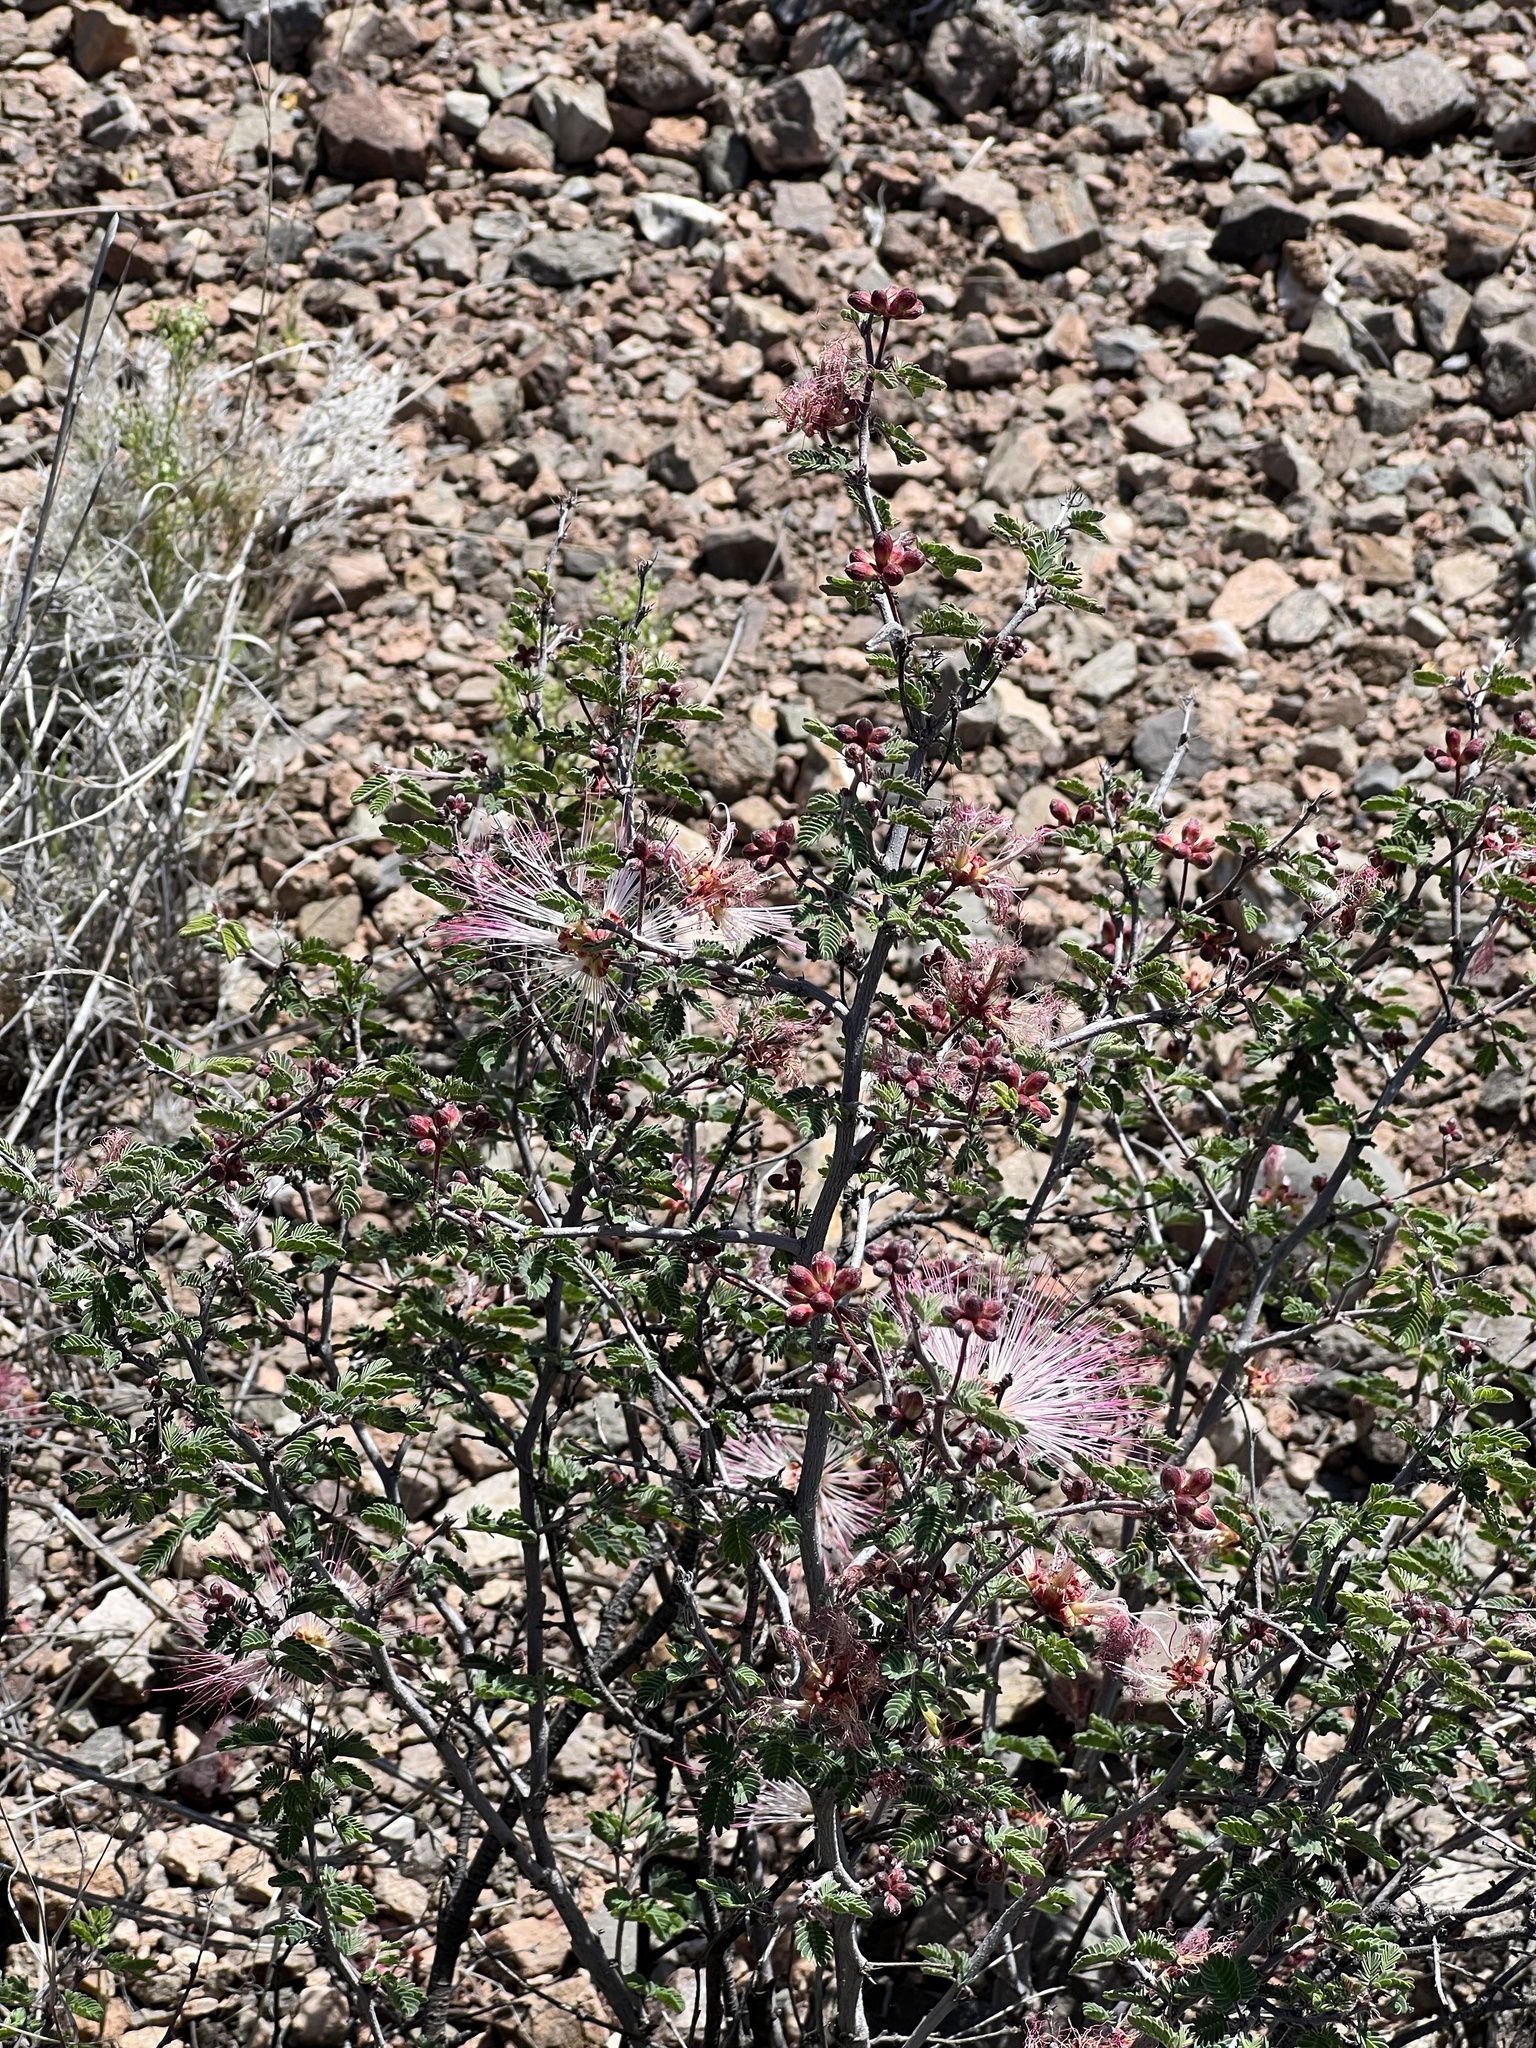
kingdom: Plantae
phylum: Tracheophyta
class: Magnoliopsida
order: Fabales
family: Fabaceae
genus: Calliandra
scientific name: Calliandra eriophylla
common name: Fairy-duster
